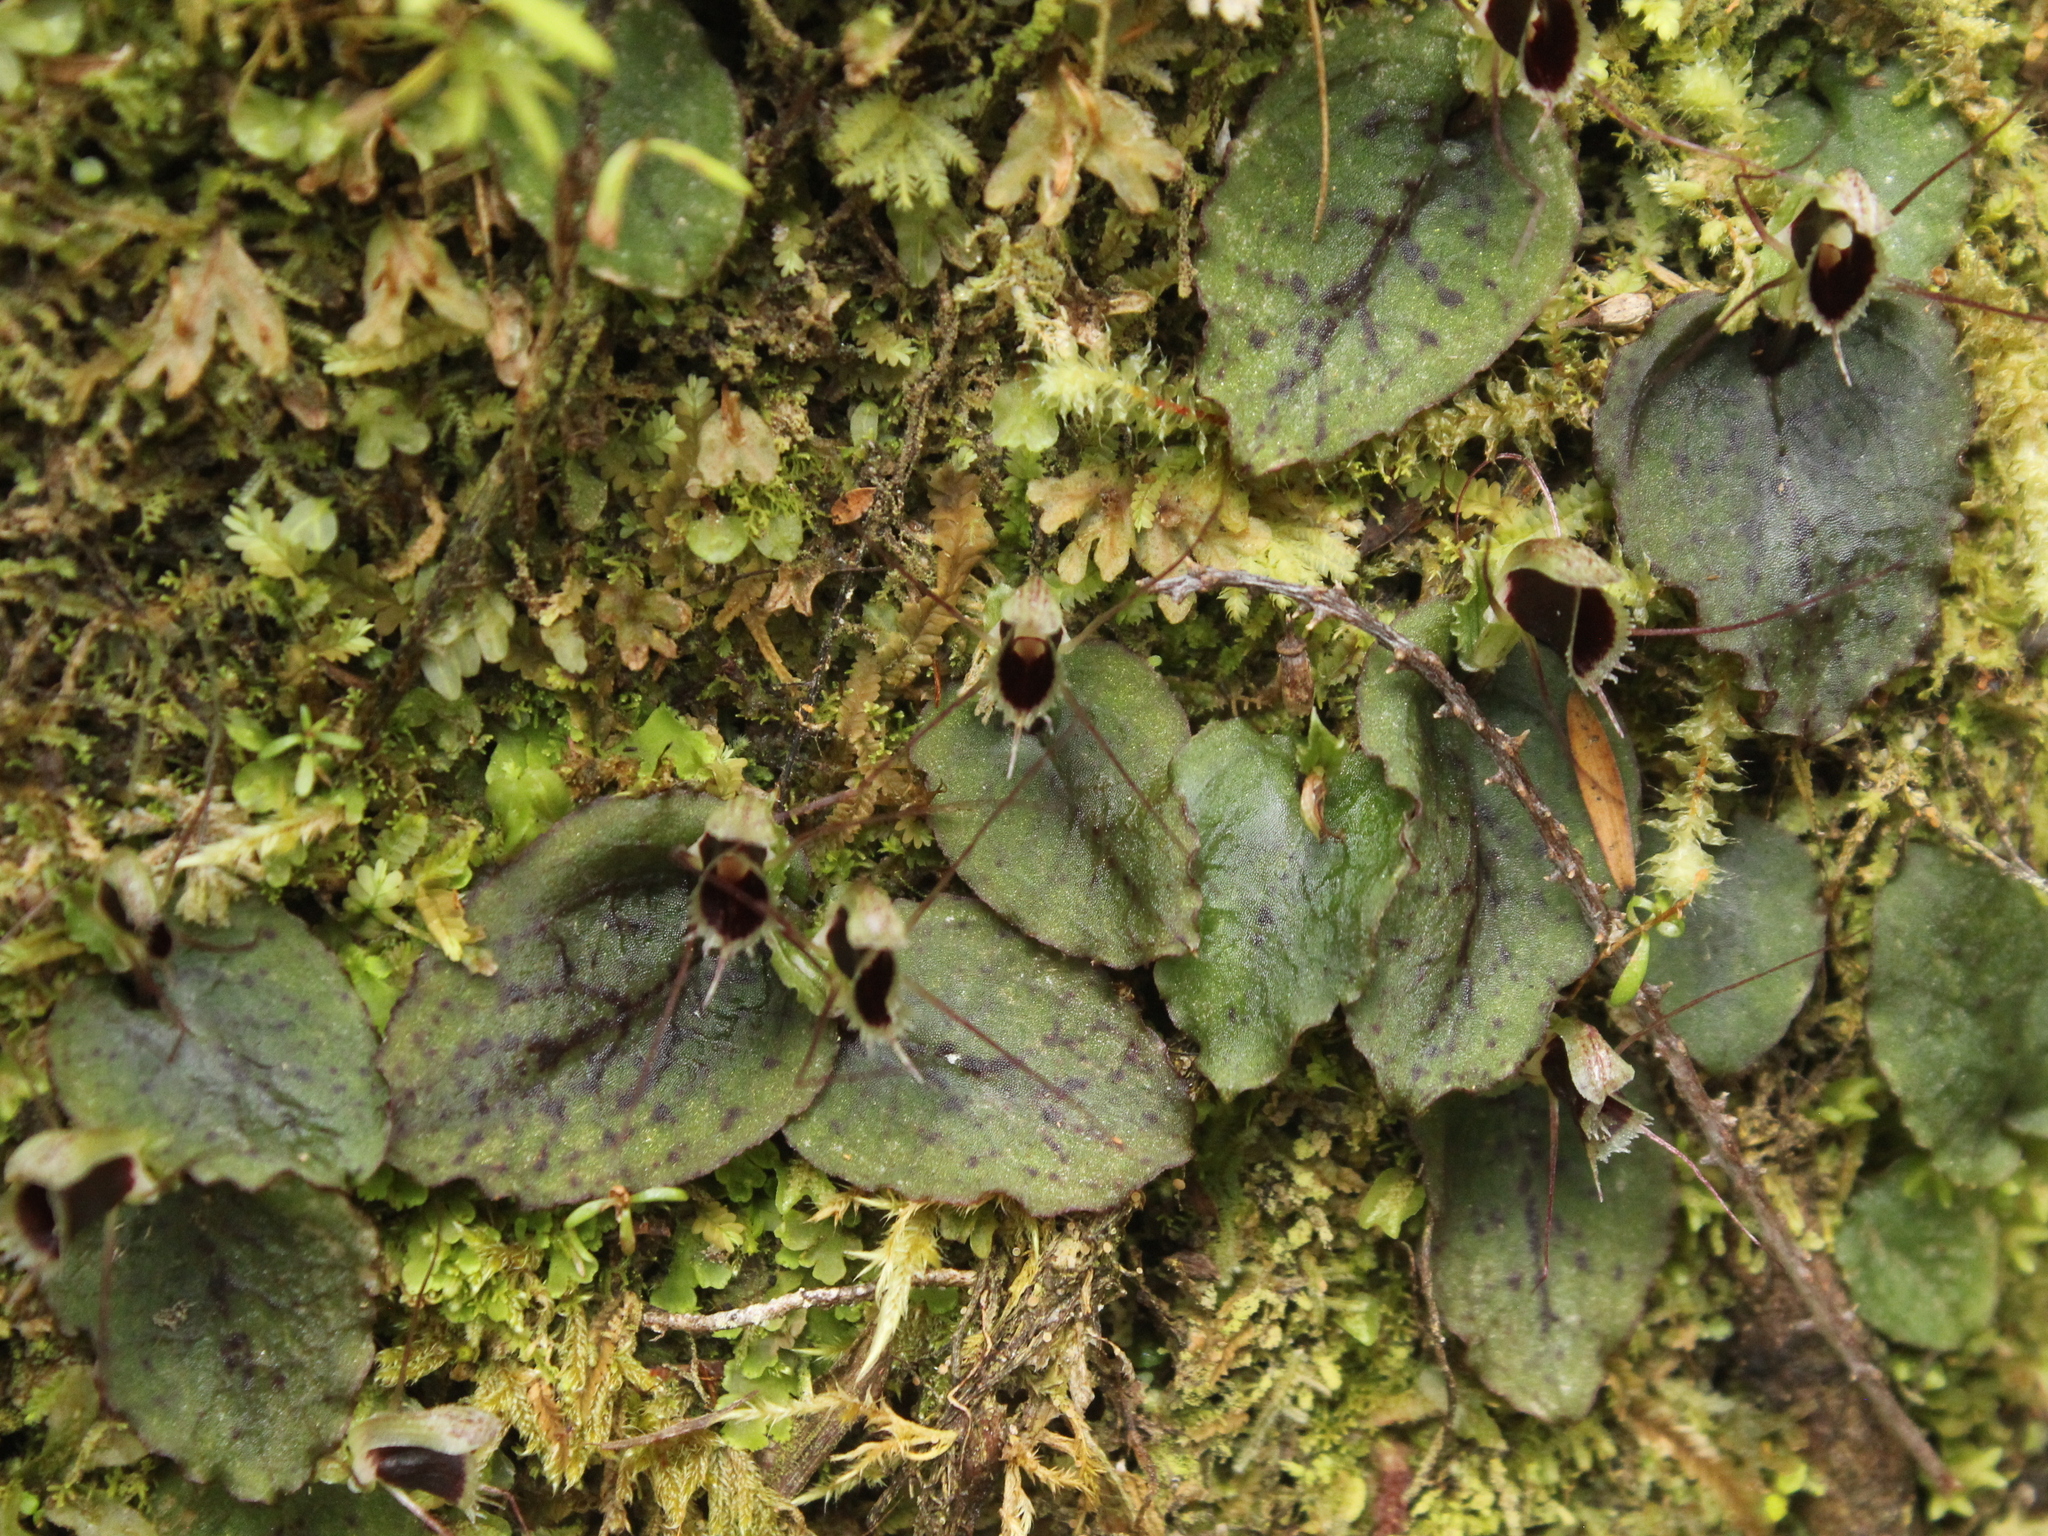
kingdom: Plantae
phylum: Tracheophyta
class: Liliopsida
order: Asparagales
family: Orchidaceae
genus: Corybas
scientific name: Corybas oblongus
